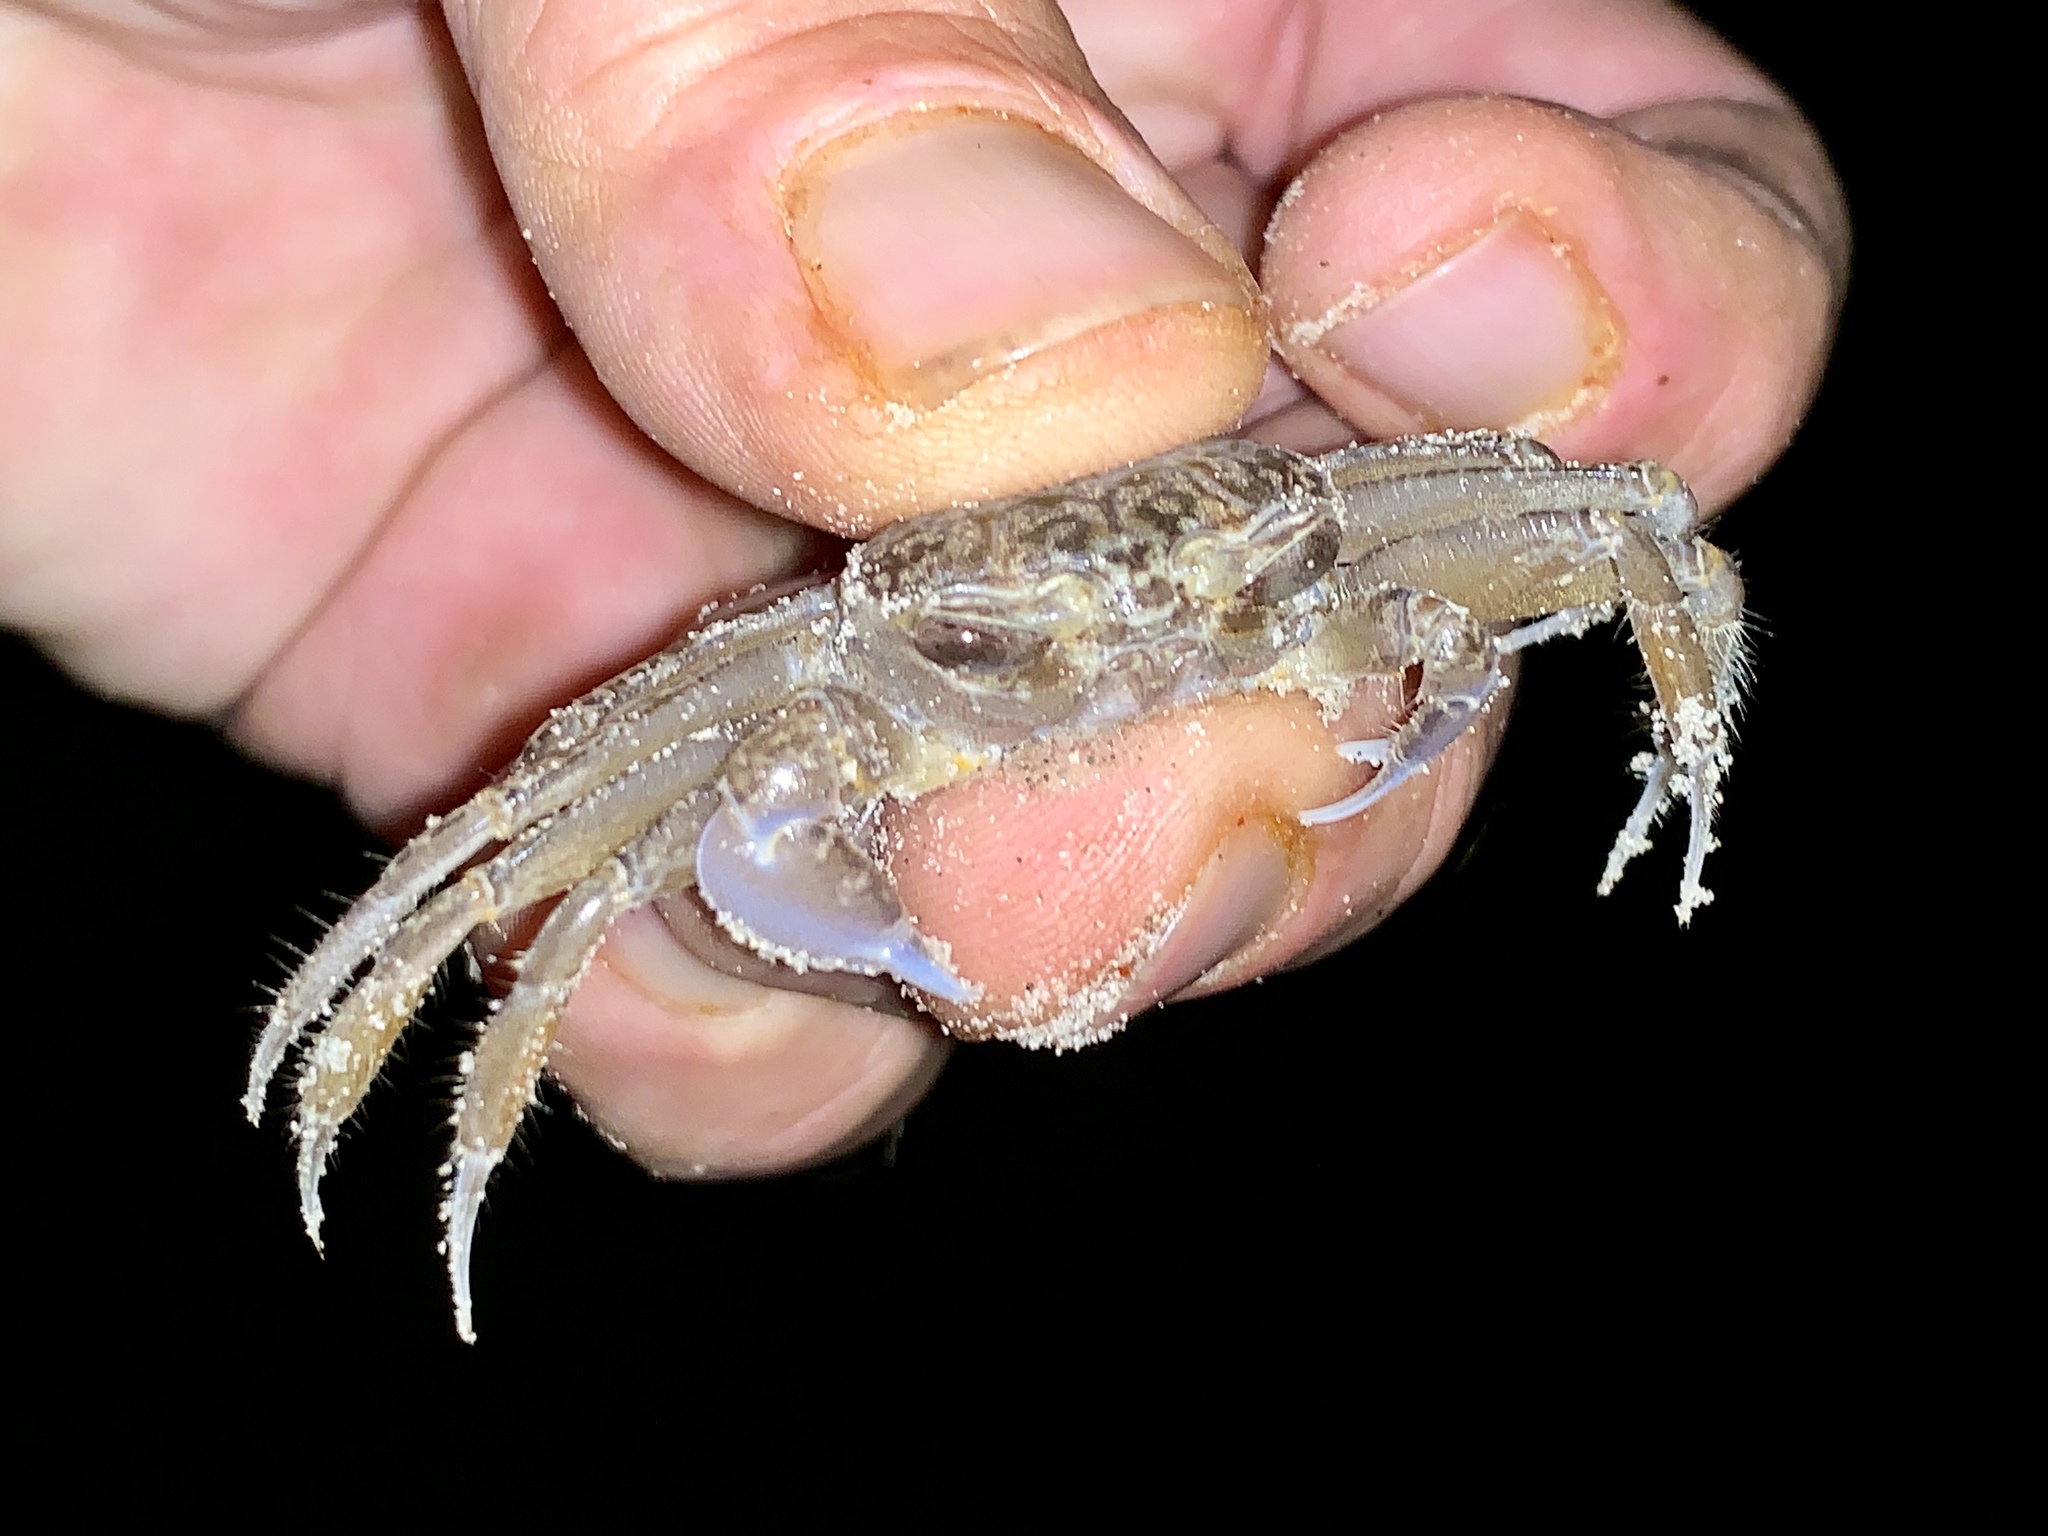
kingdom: Animalia
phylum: Arthropoda
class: Malacostraca
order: Decapoda
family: Ocypodidae
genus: Ocypode
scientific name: Ocypode quadrata
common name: Ghost crab
